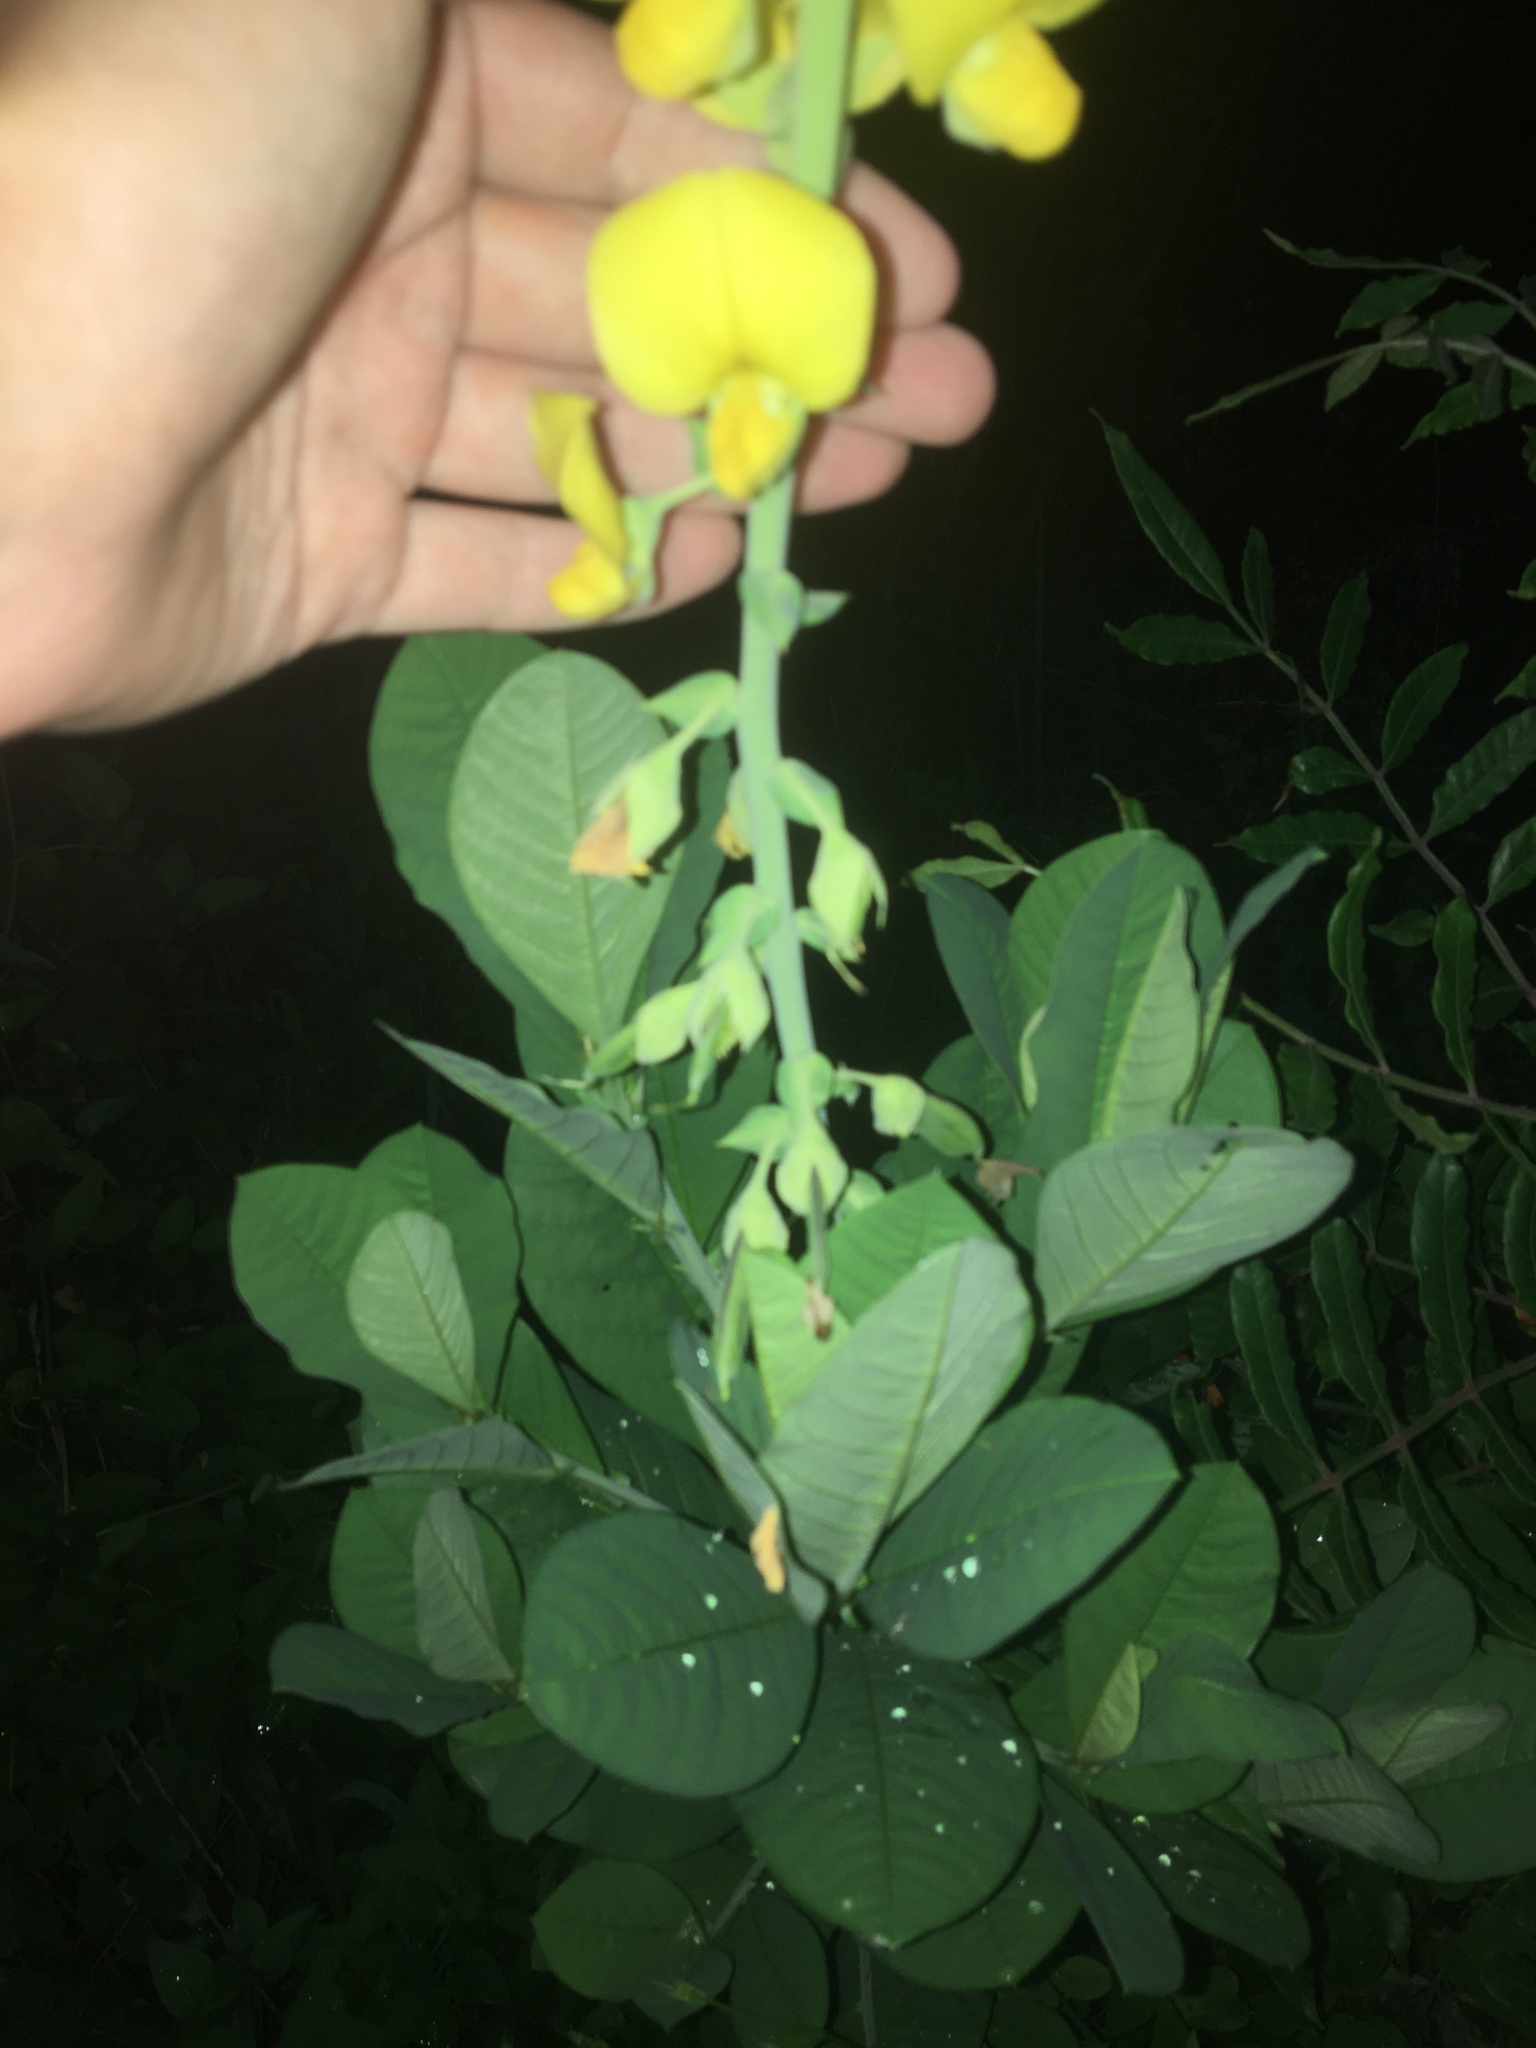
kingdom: Plantae
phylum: Tracheophyta
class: Magnoliopsida
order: Fabales
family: Fabaceae
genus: Crotalaria
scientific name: Crotalaria spectabilis
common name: Showy rattlebox
